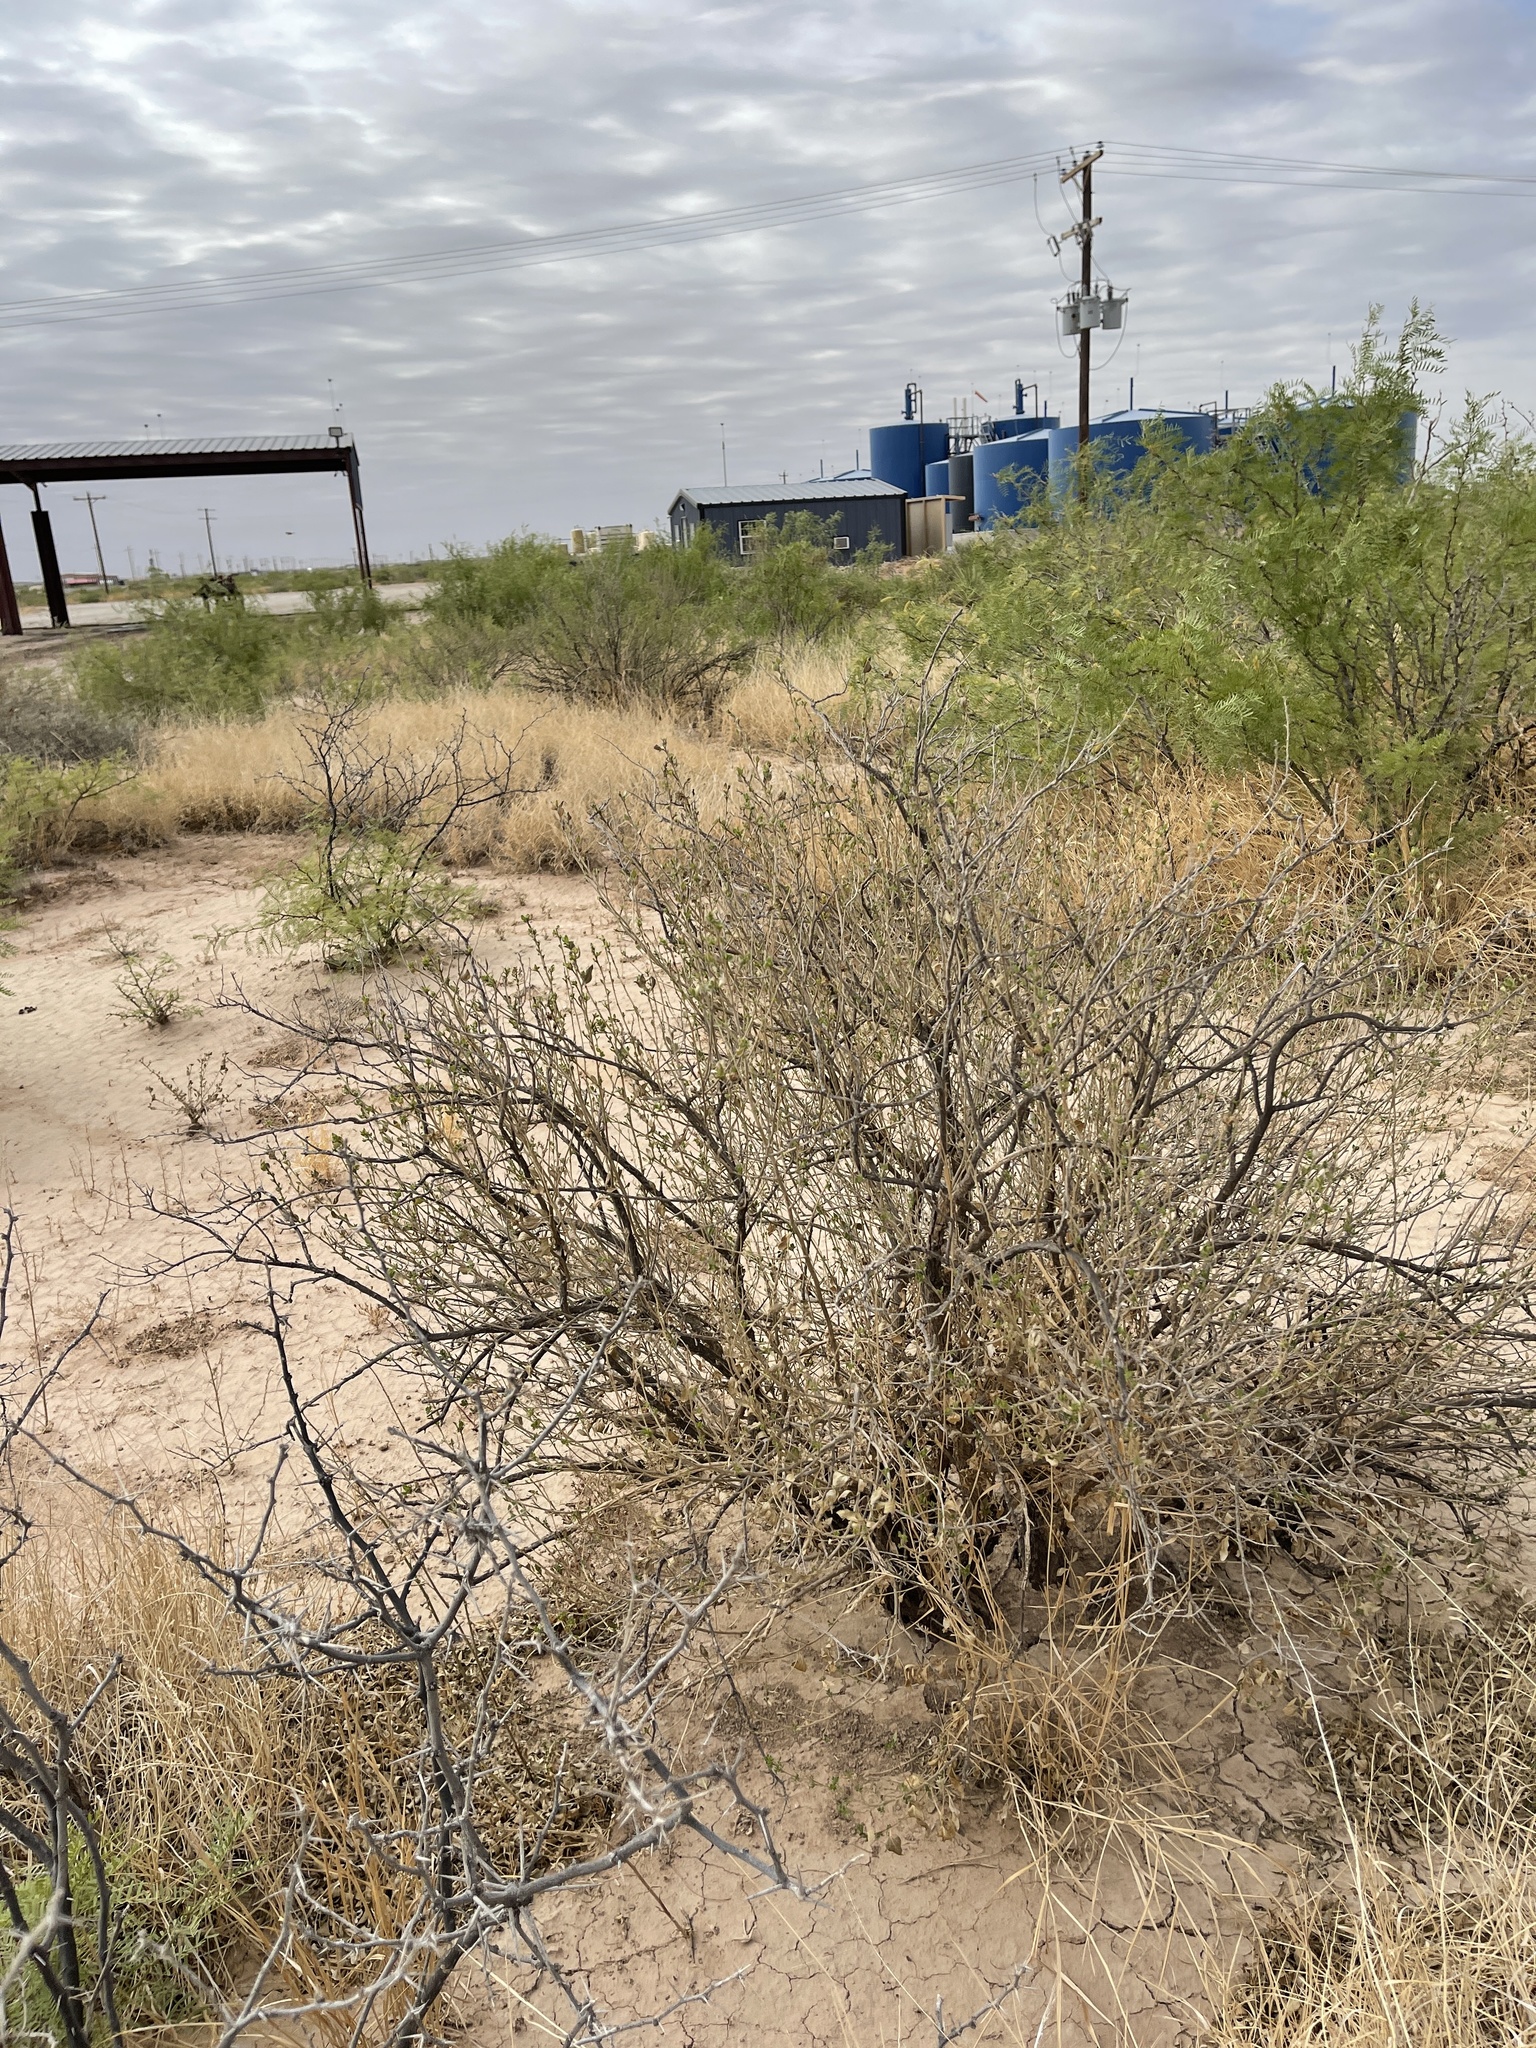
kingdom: Plantae
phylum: Tracheophyta
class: Magnoliopsida
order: Asterales
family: Asteraceae
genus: Flourensia
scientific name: Flourensia cernua
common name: Varnishbush
